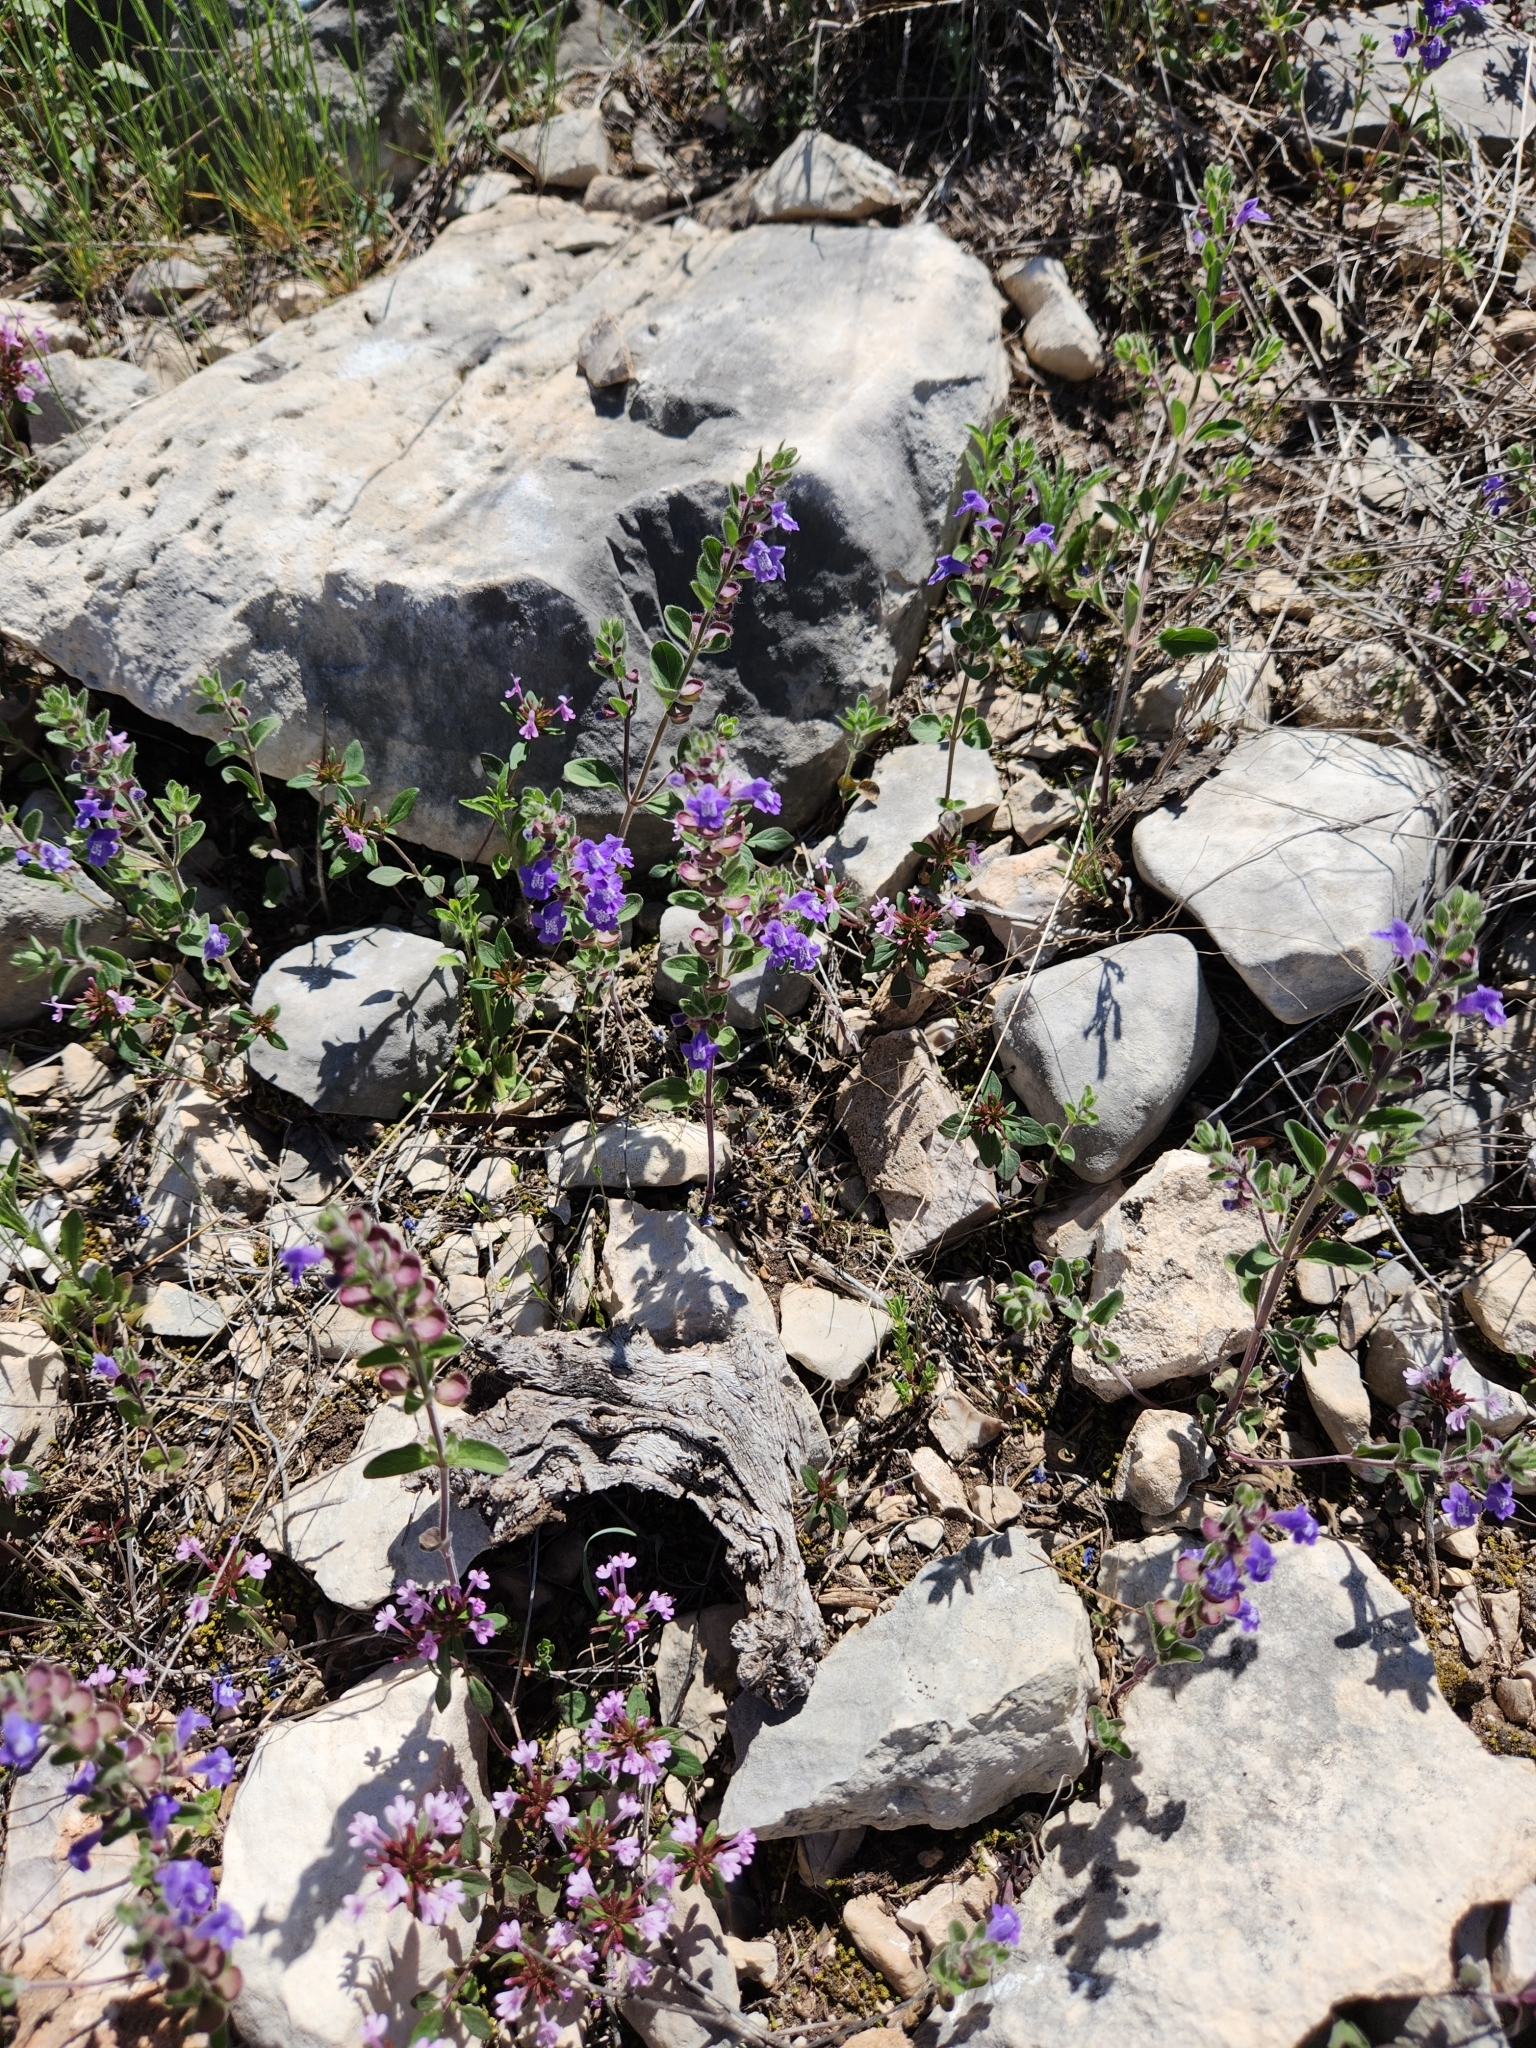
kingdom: Plantae
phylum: Tracheophyta
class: Magnoliopsida
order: Lamiales
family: Lamiaceae
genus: Scutellaria
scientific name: Scutellaria drummondii
